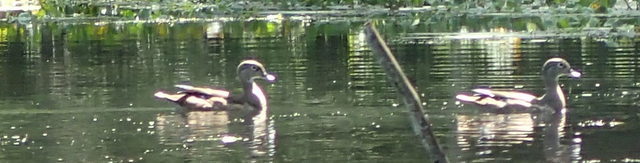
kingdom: Animalia
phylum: Chordata
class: Aves
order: Anseriformes
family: Anatidae
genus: Aix
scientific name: Aix sponsa
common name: Wood duck
